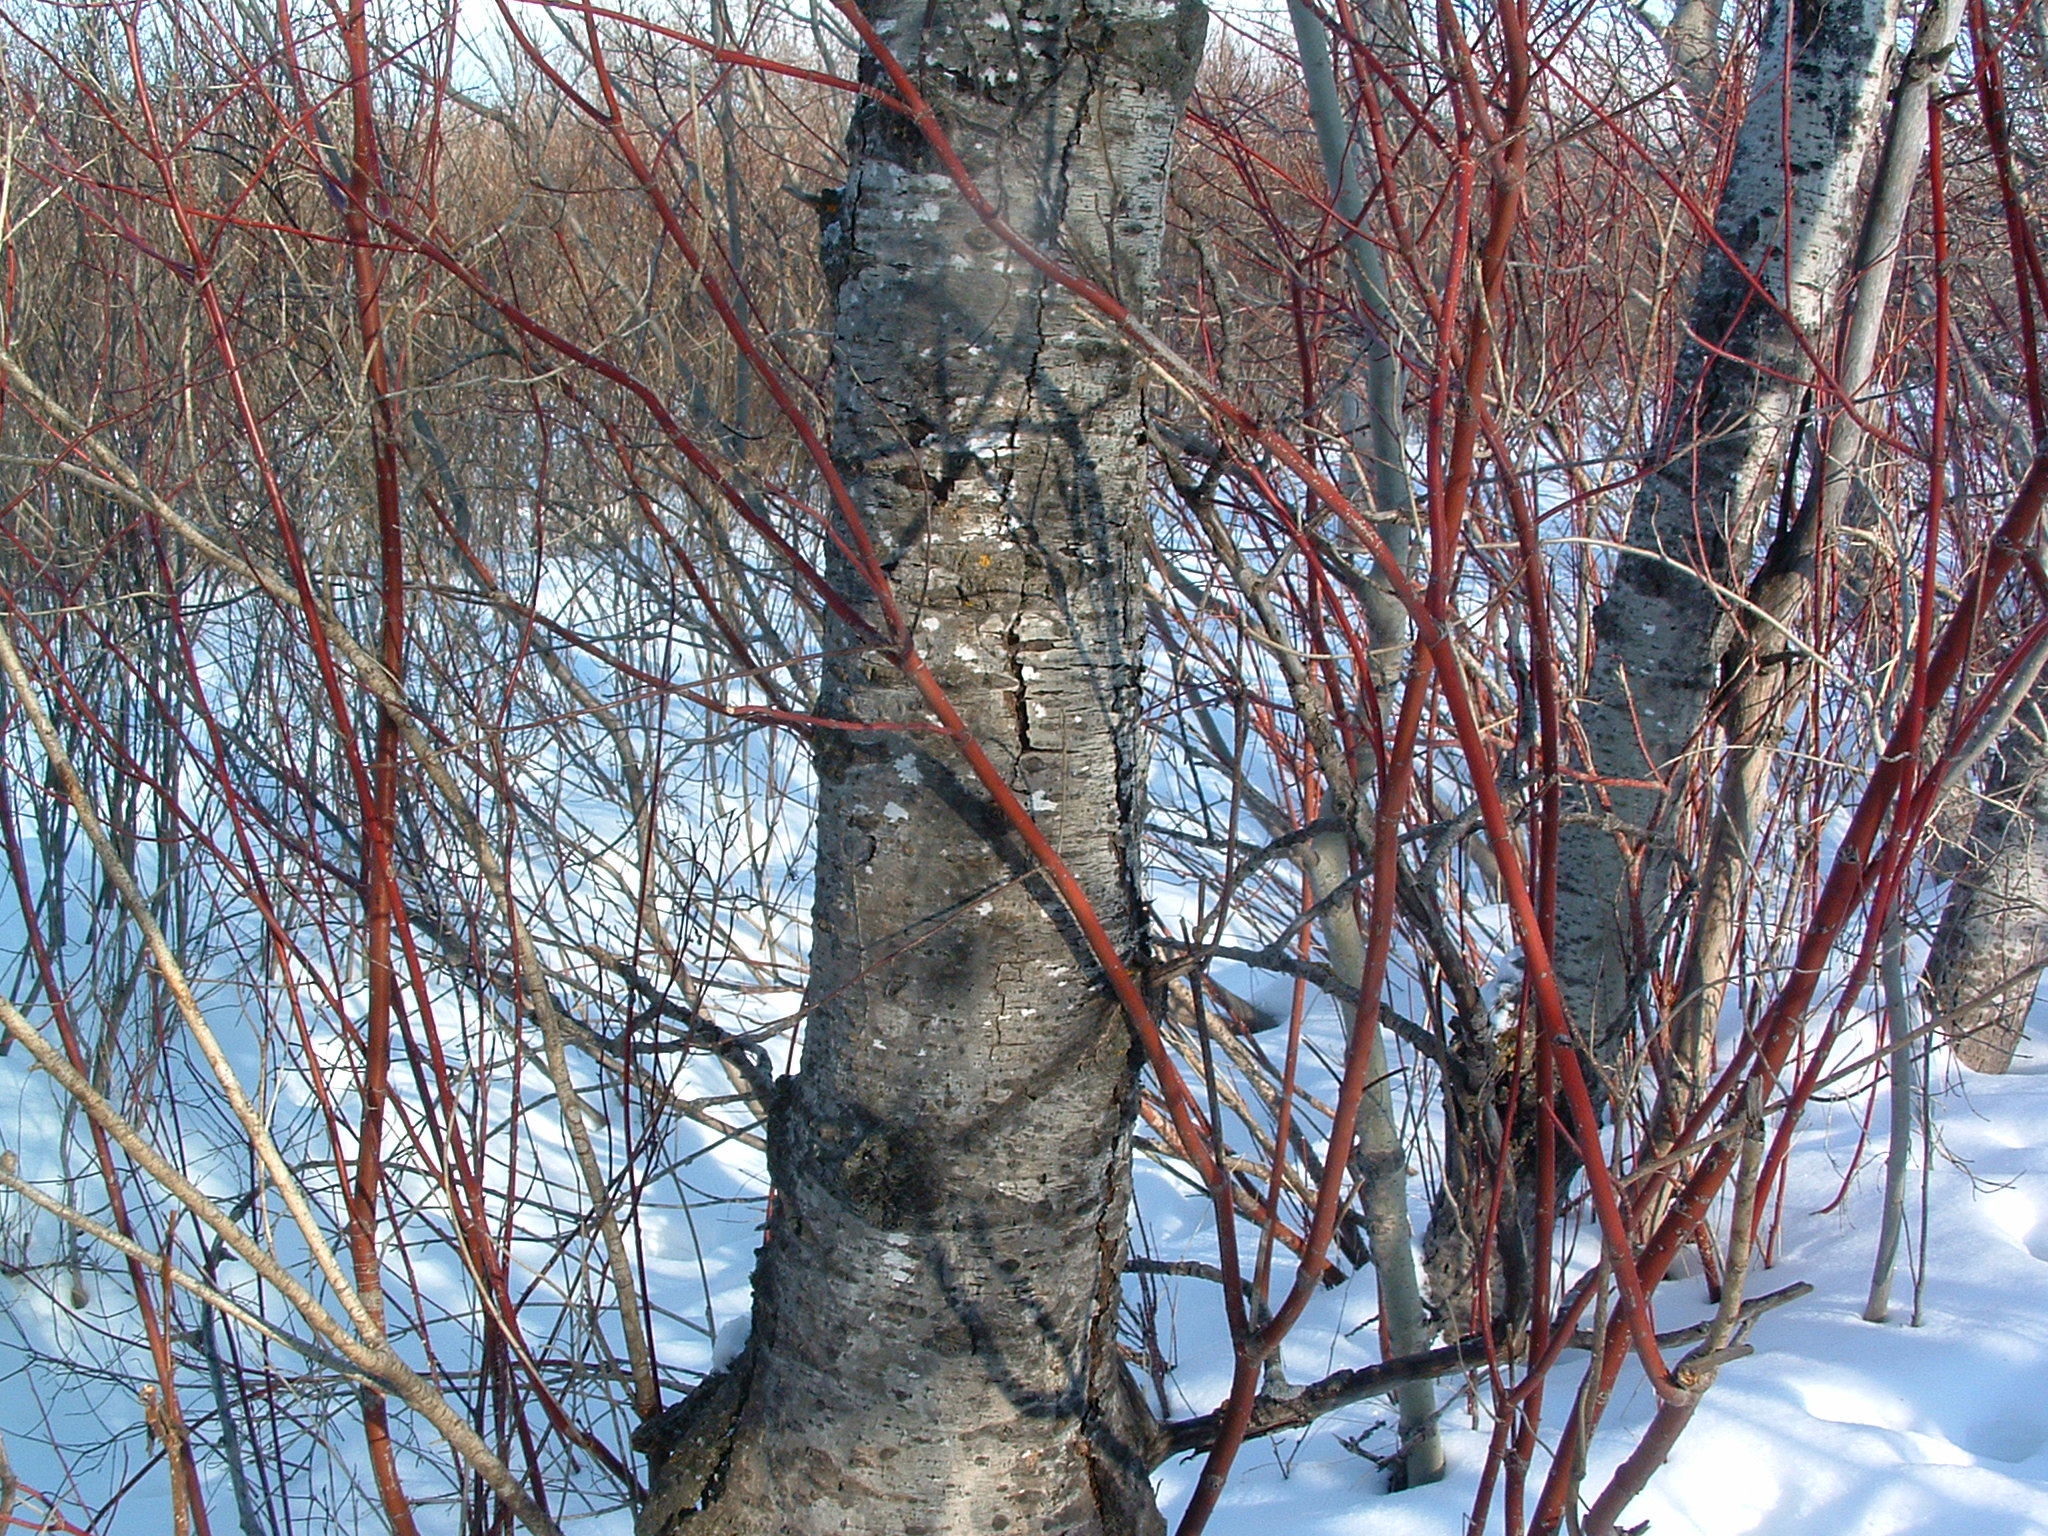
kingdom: Plantae
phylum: Tracheophyta
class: Magnoliopsida
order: Cornales
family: Cornaceae
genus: Cornus
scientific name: Cornus sericea
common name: Red-osier dogwood
